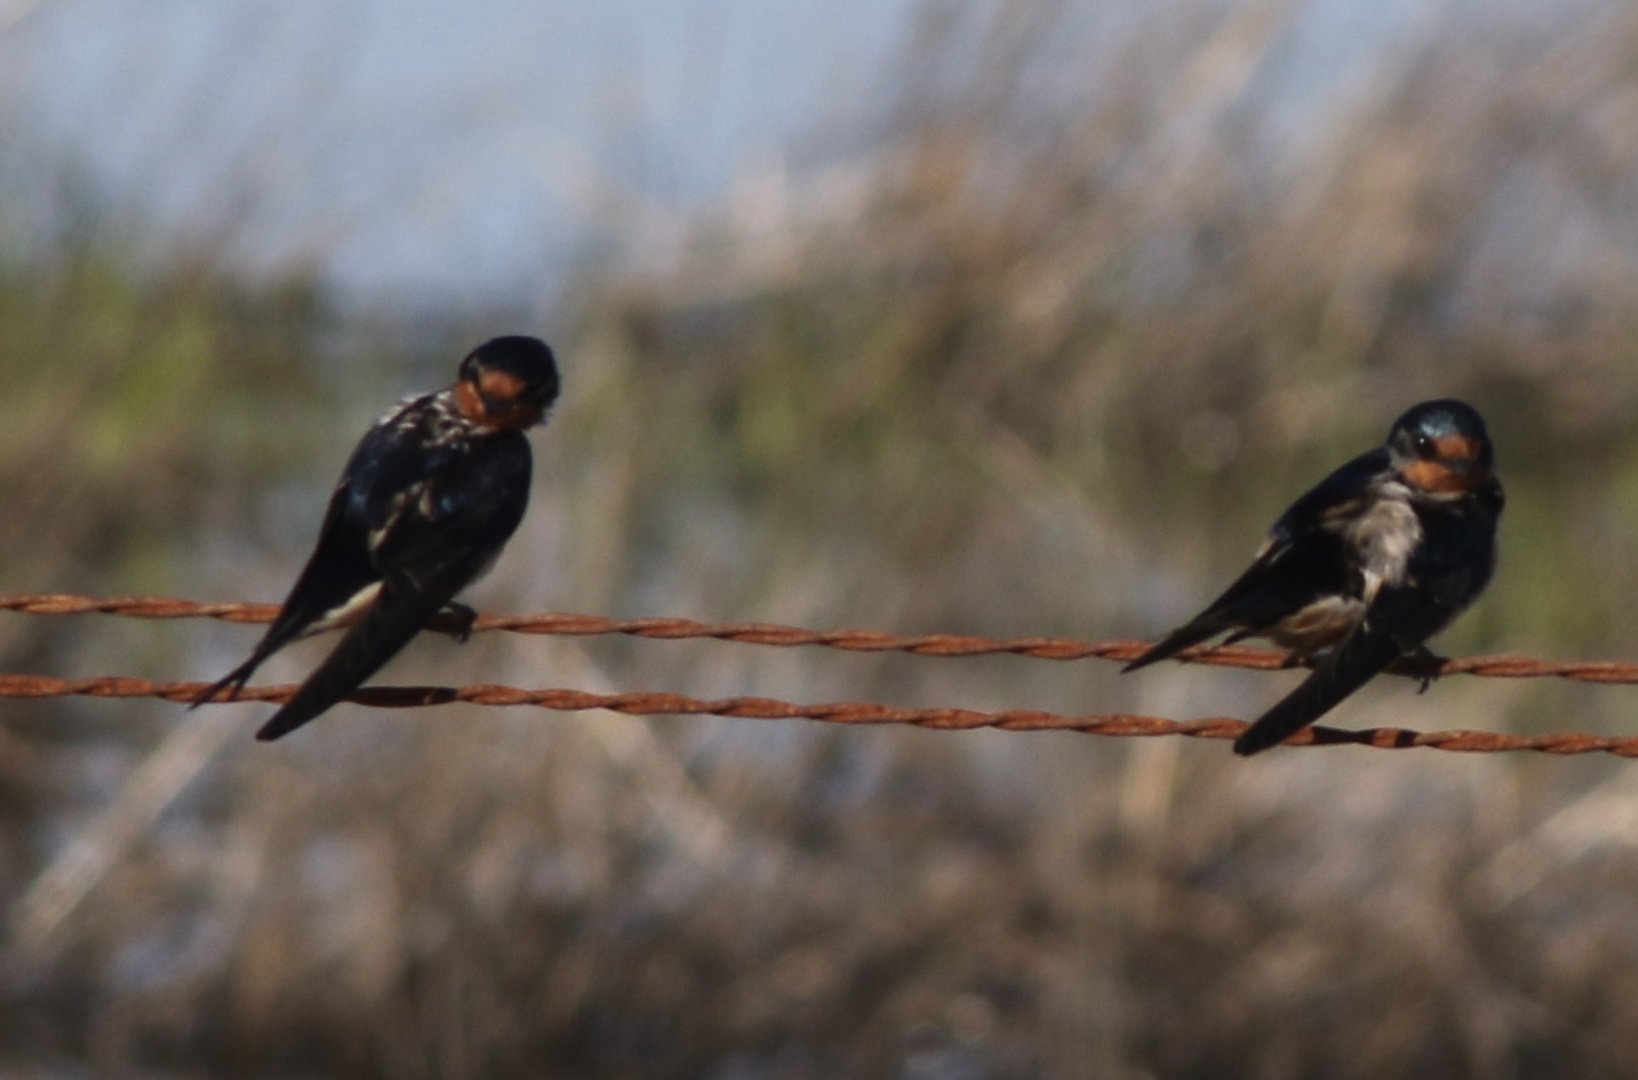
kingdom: Animalia
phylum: Chordata
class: Aves
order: Passeriformes
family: Hirundinidae
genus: Hirundo
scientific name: Hirundo rustica
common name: Barn swallow
